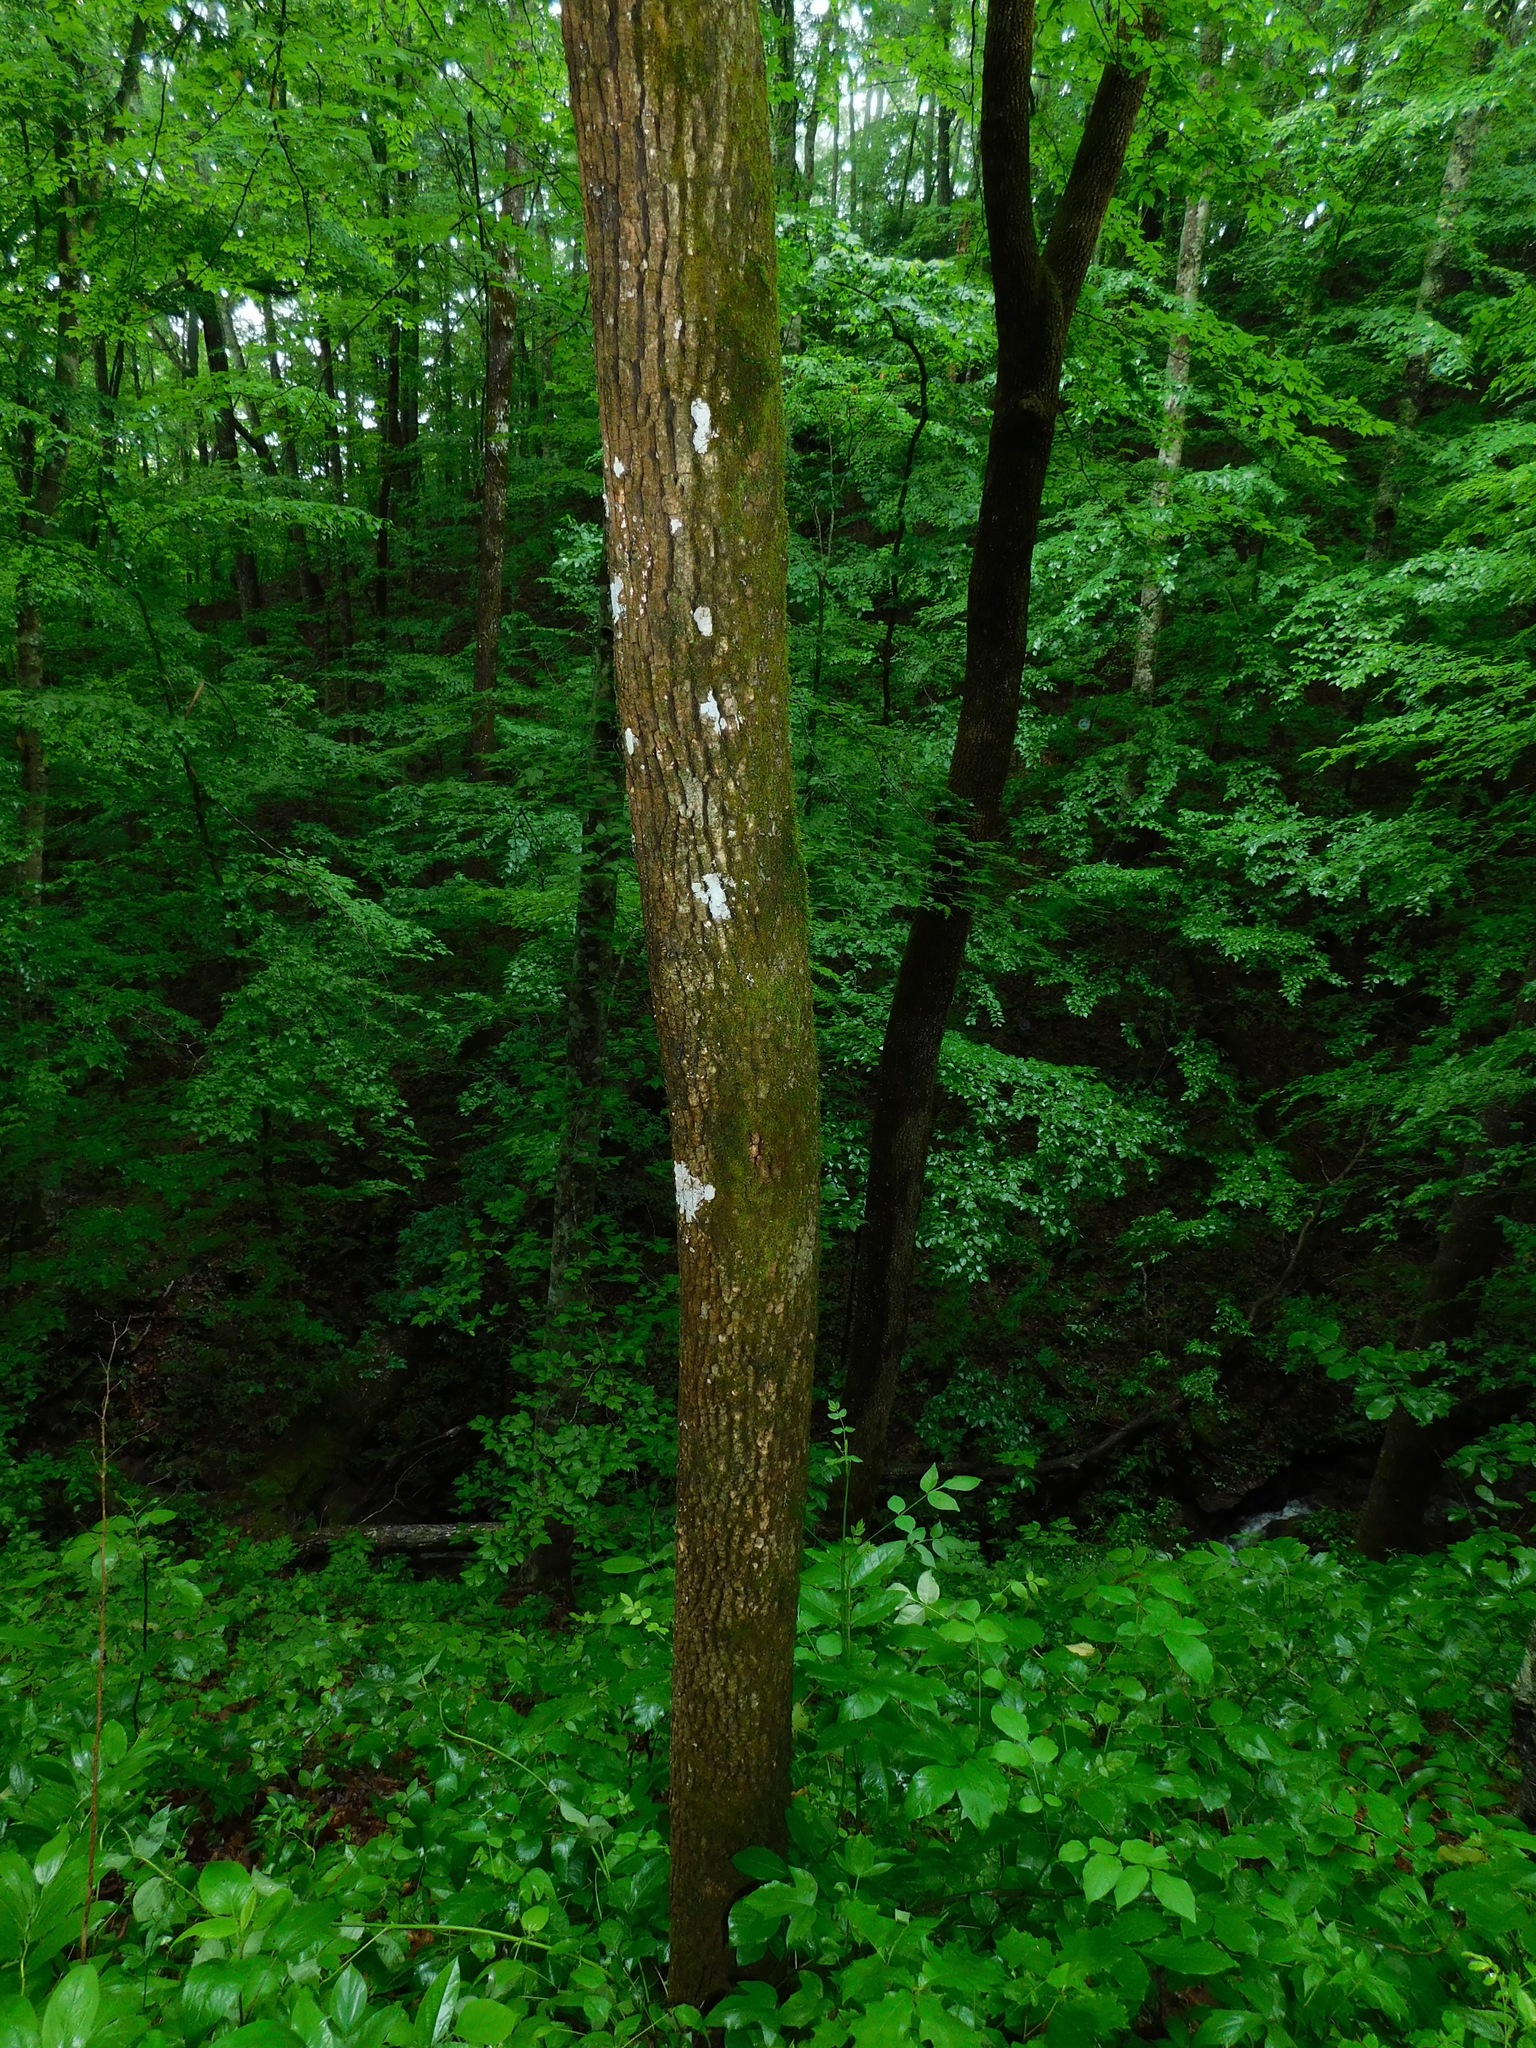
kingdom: Plantae
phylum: Tracheophyta
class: Magnoliopsida
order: Lamiales
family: Oleaceae
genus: Fraxinus
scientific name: Fraxinus americana
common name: White ash
